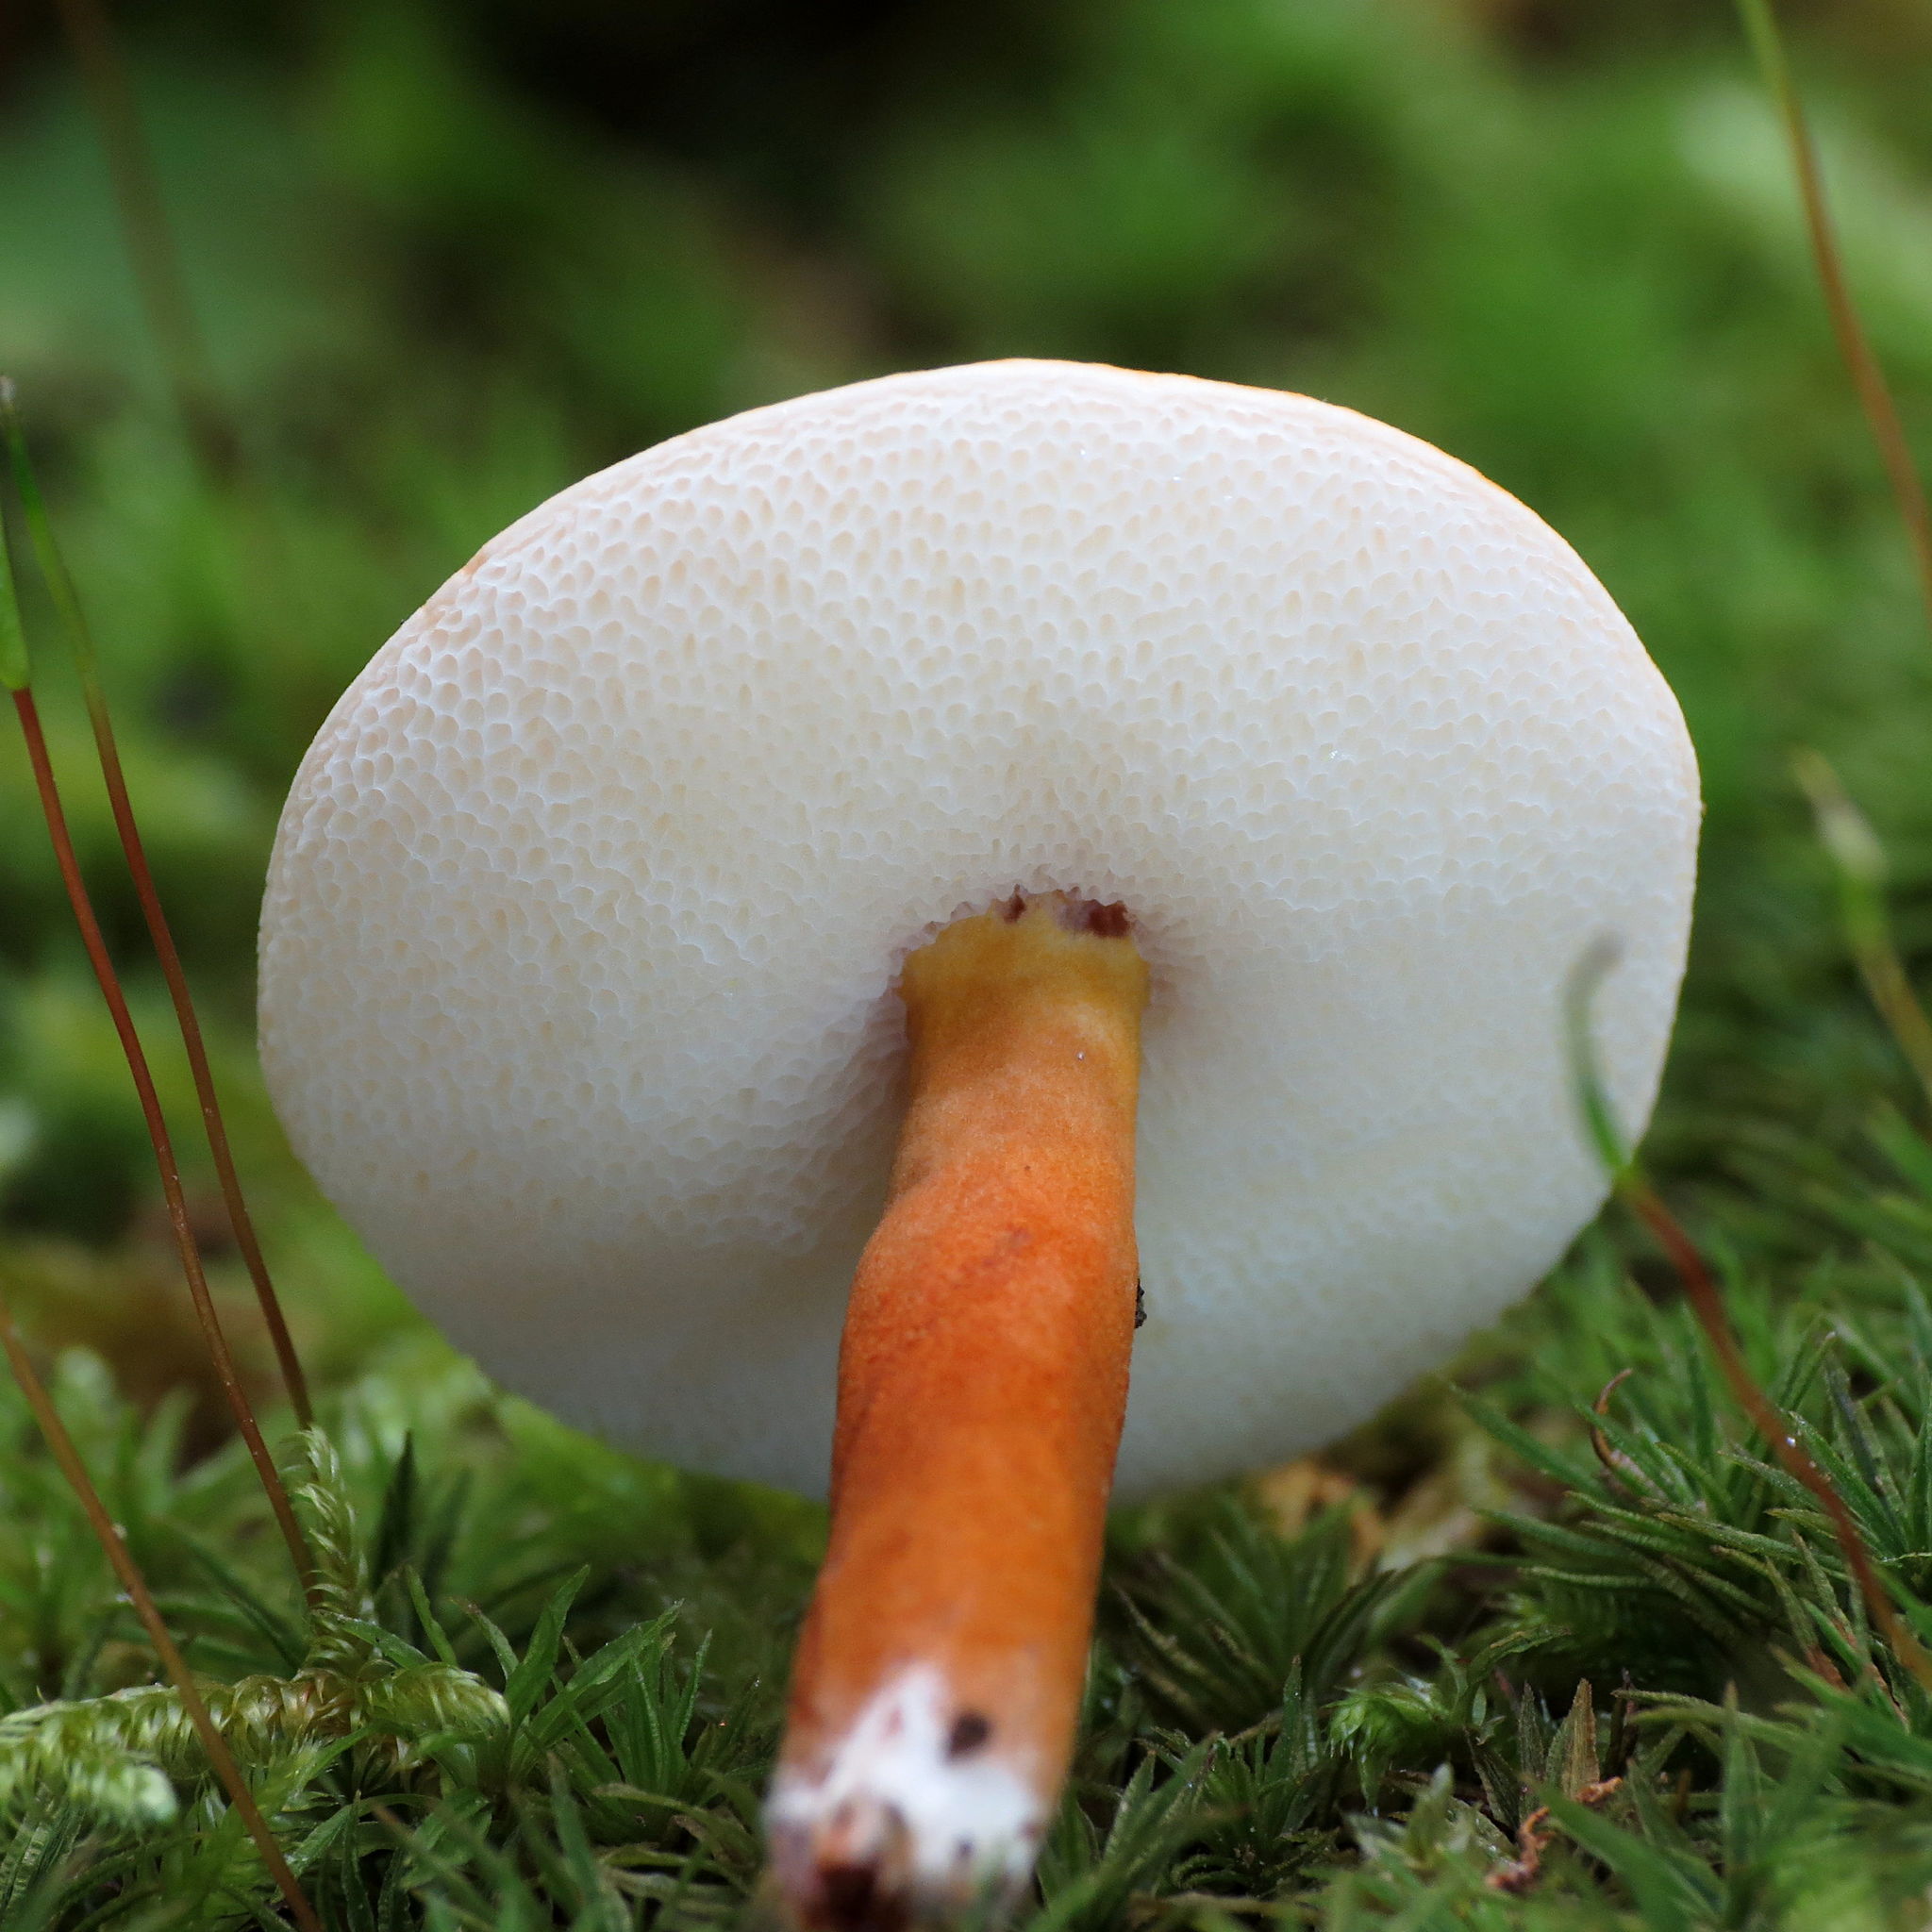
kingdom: Fungi
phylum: Basidiomycota
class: Agaricomycetes
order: Boletales
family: Gyroporaceae
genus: Gyroporus
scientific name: Gyroporus castaneus
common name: Chestnut bolete
